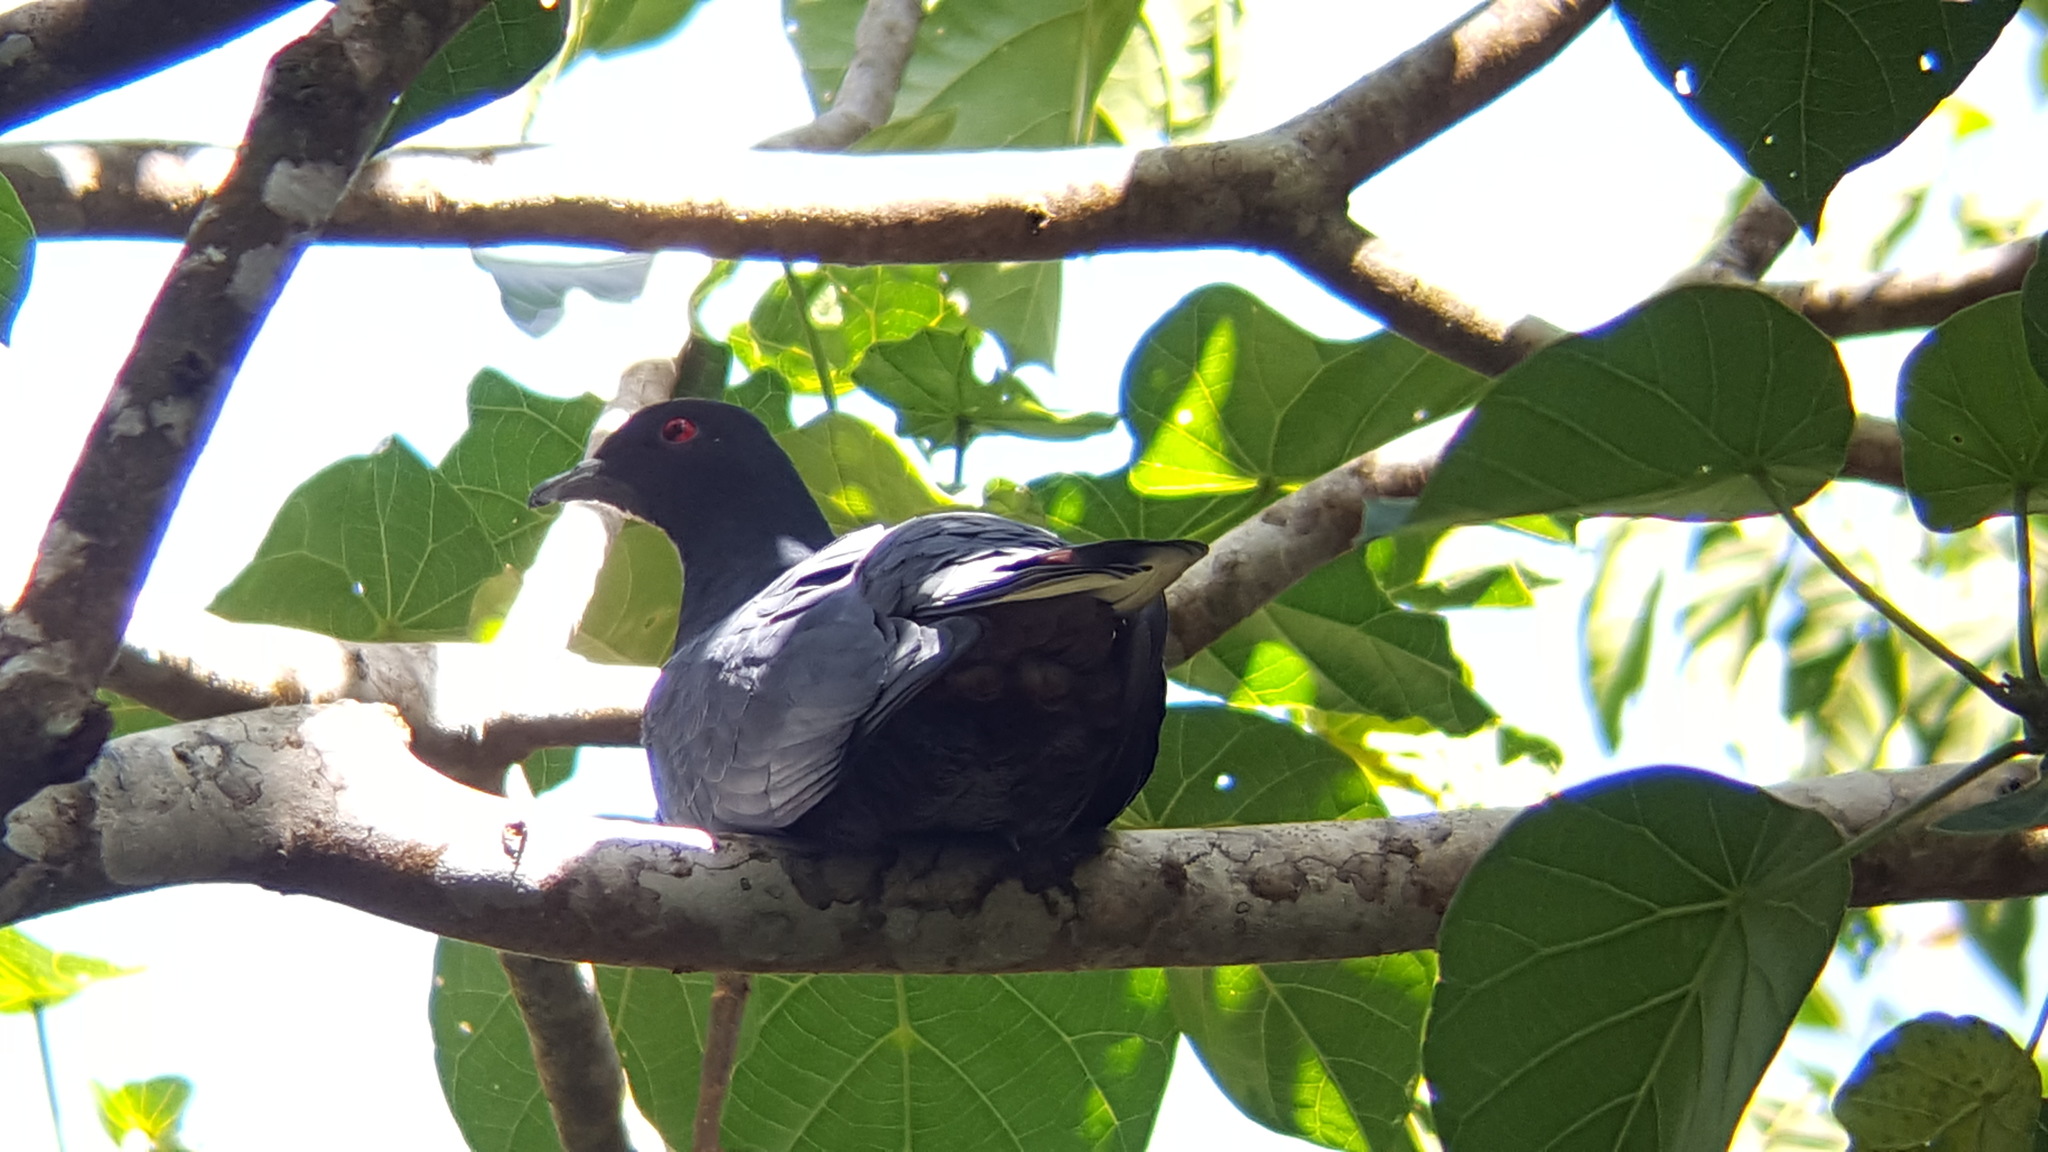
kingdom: Animalia
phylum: Chordata
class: Aves
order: Columbiformes
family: Columbidae
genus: Ducula
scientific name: Ducula melanochroa
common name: Black imperial pigeon
